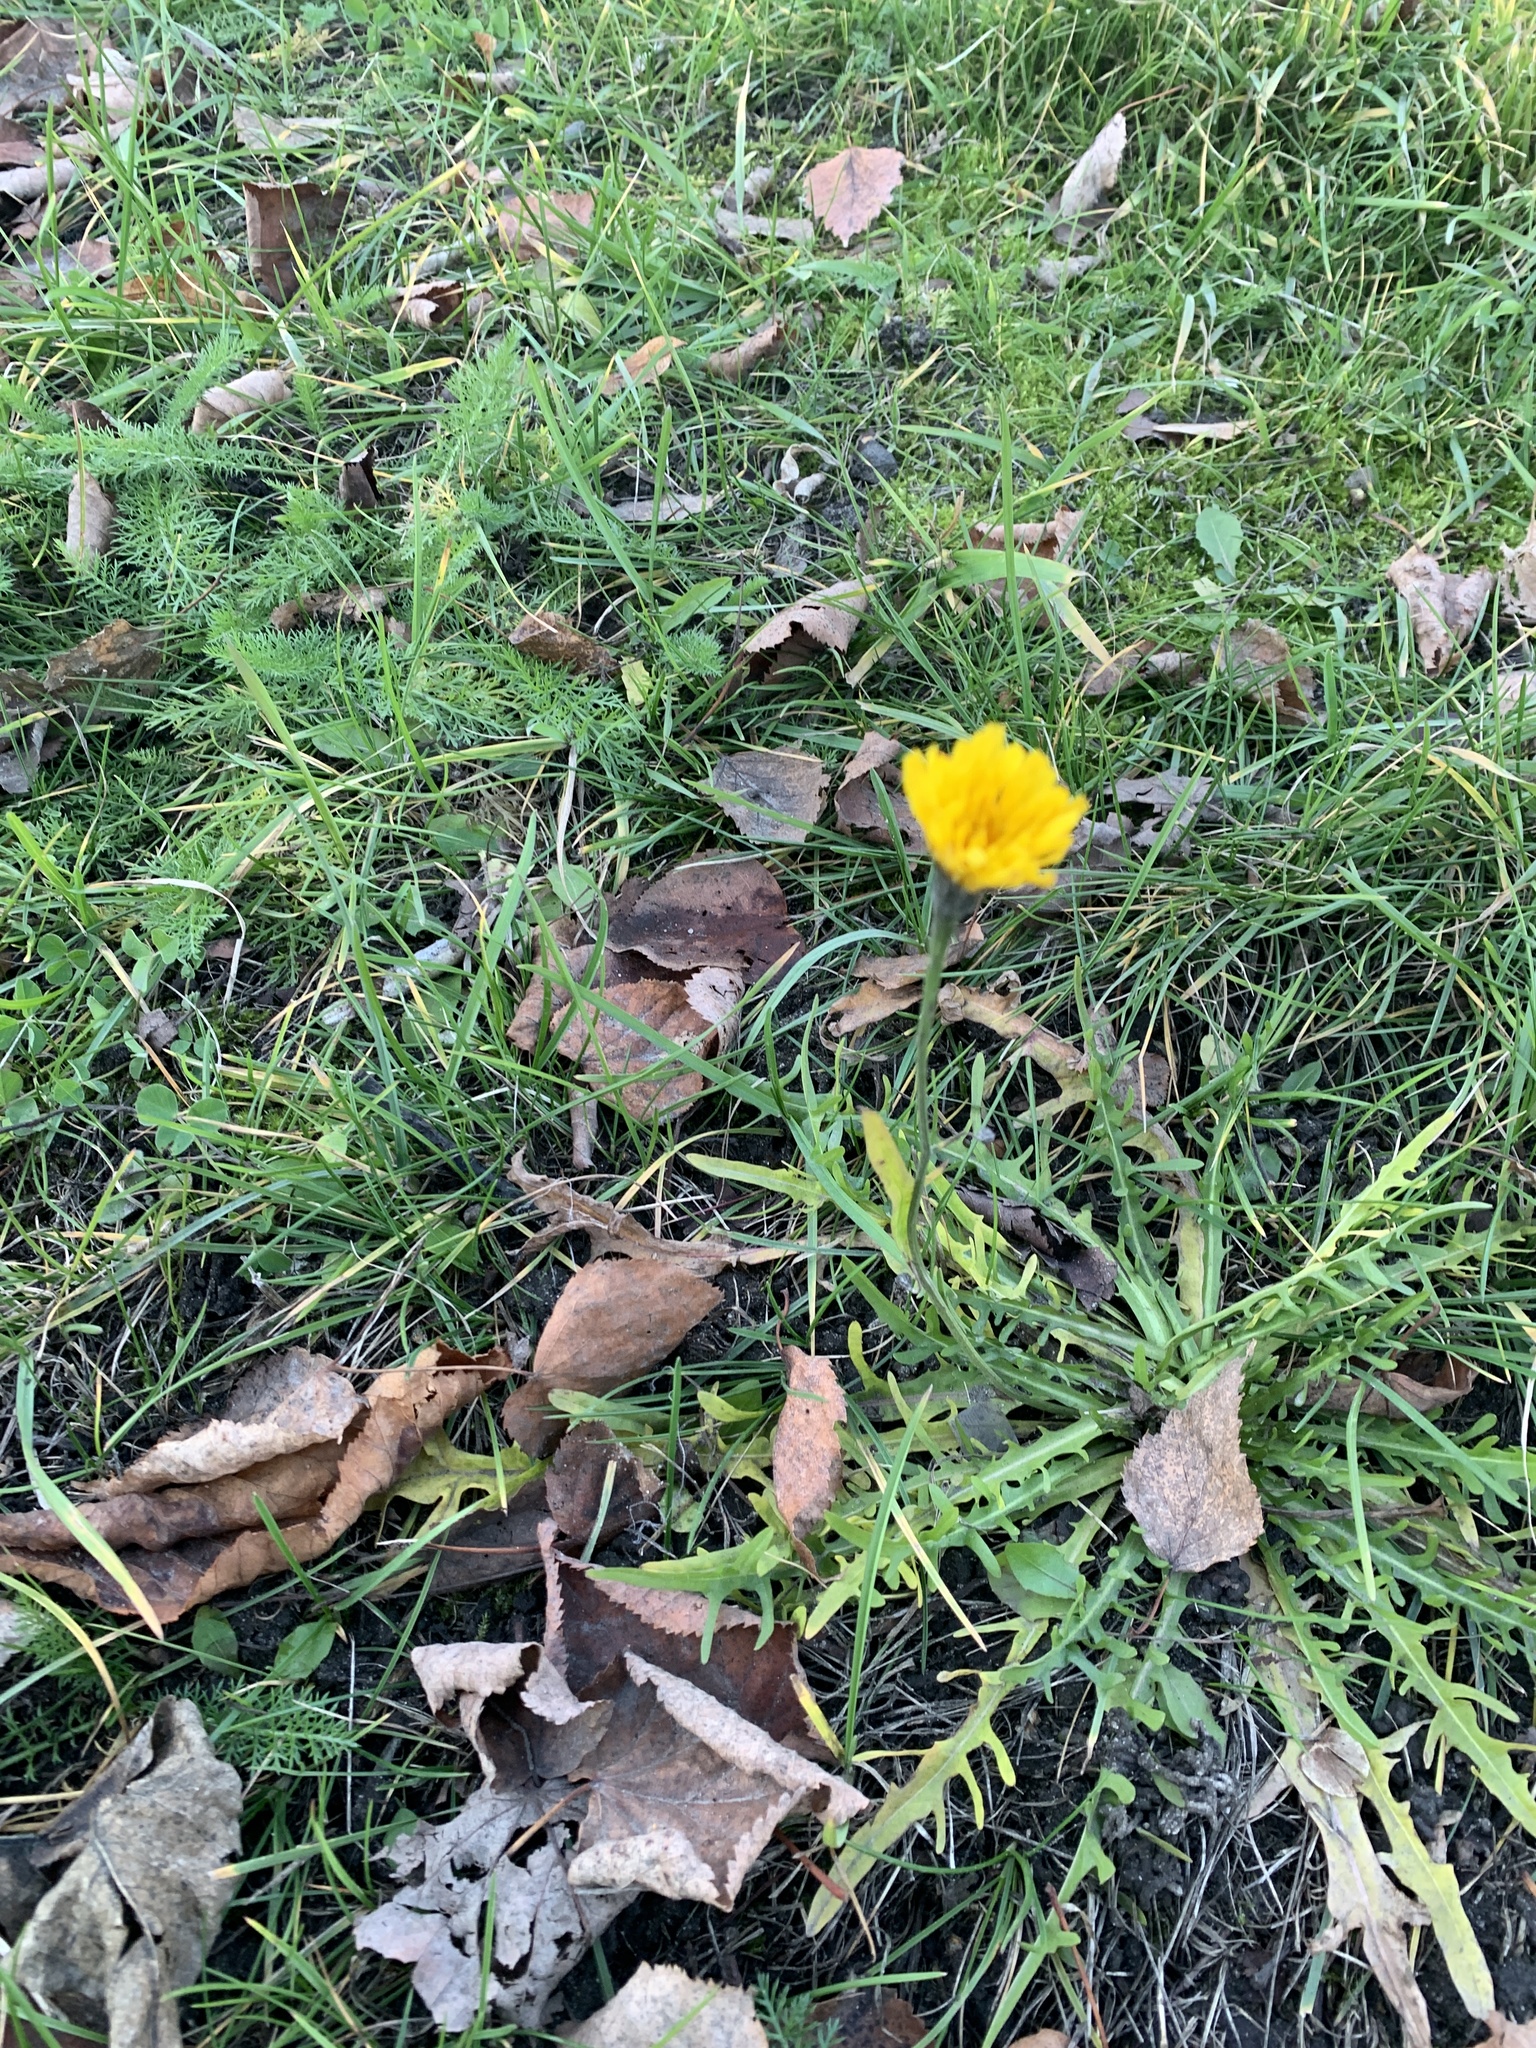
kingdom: Plantae
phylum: Tracheophyta
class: Magnoliopsida
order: Asterales
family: Asteraceae
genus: Scorzoneroides
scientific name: Scorzoneroides autumnalis
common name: Autumn hawkbit
